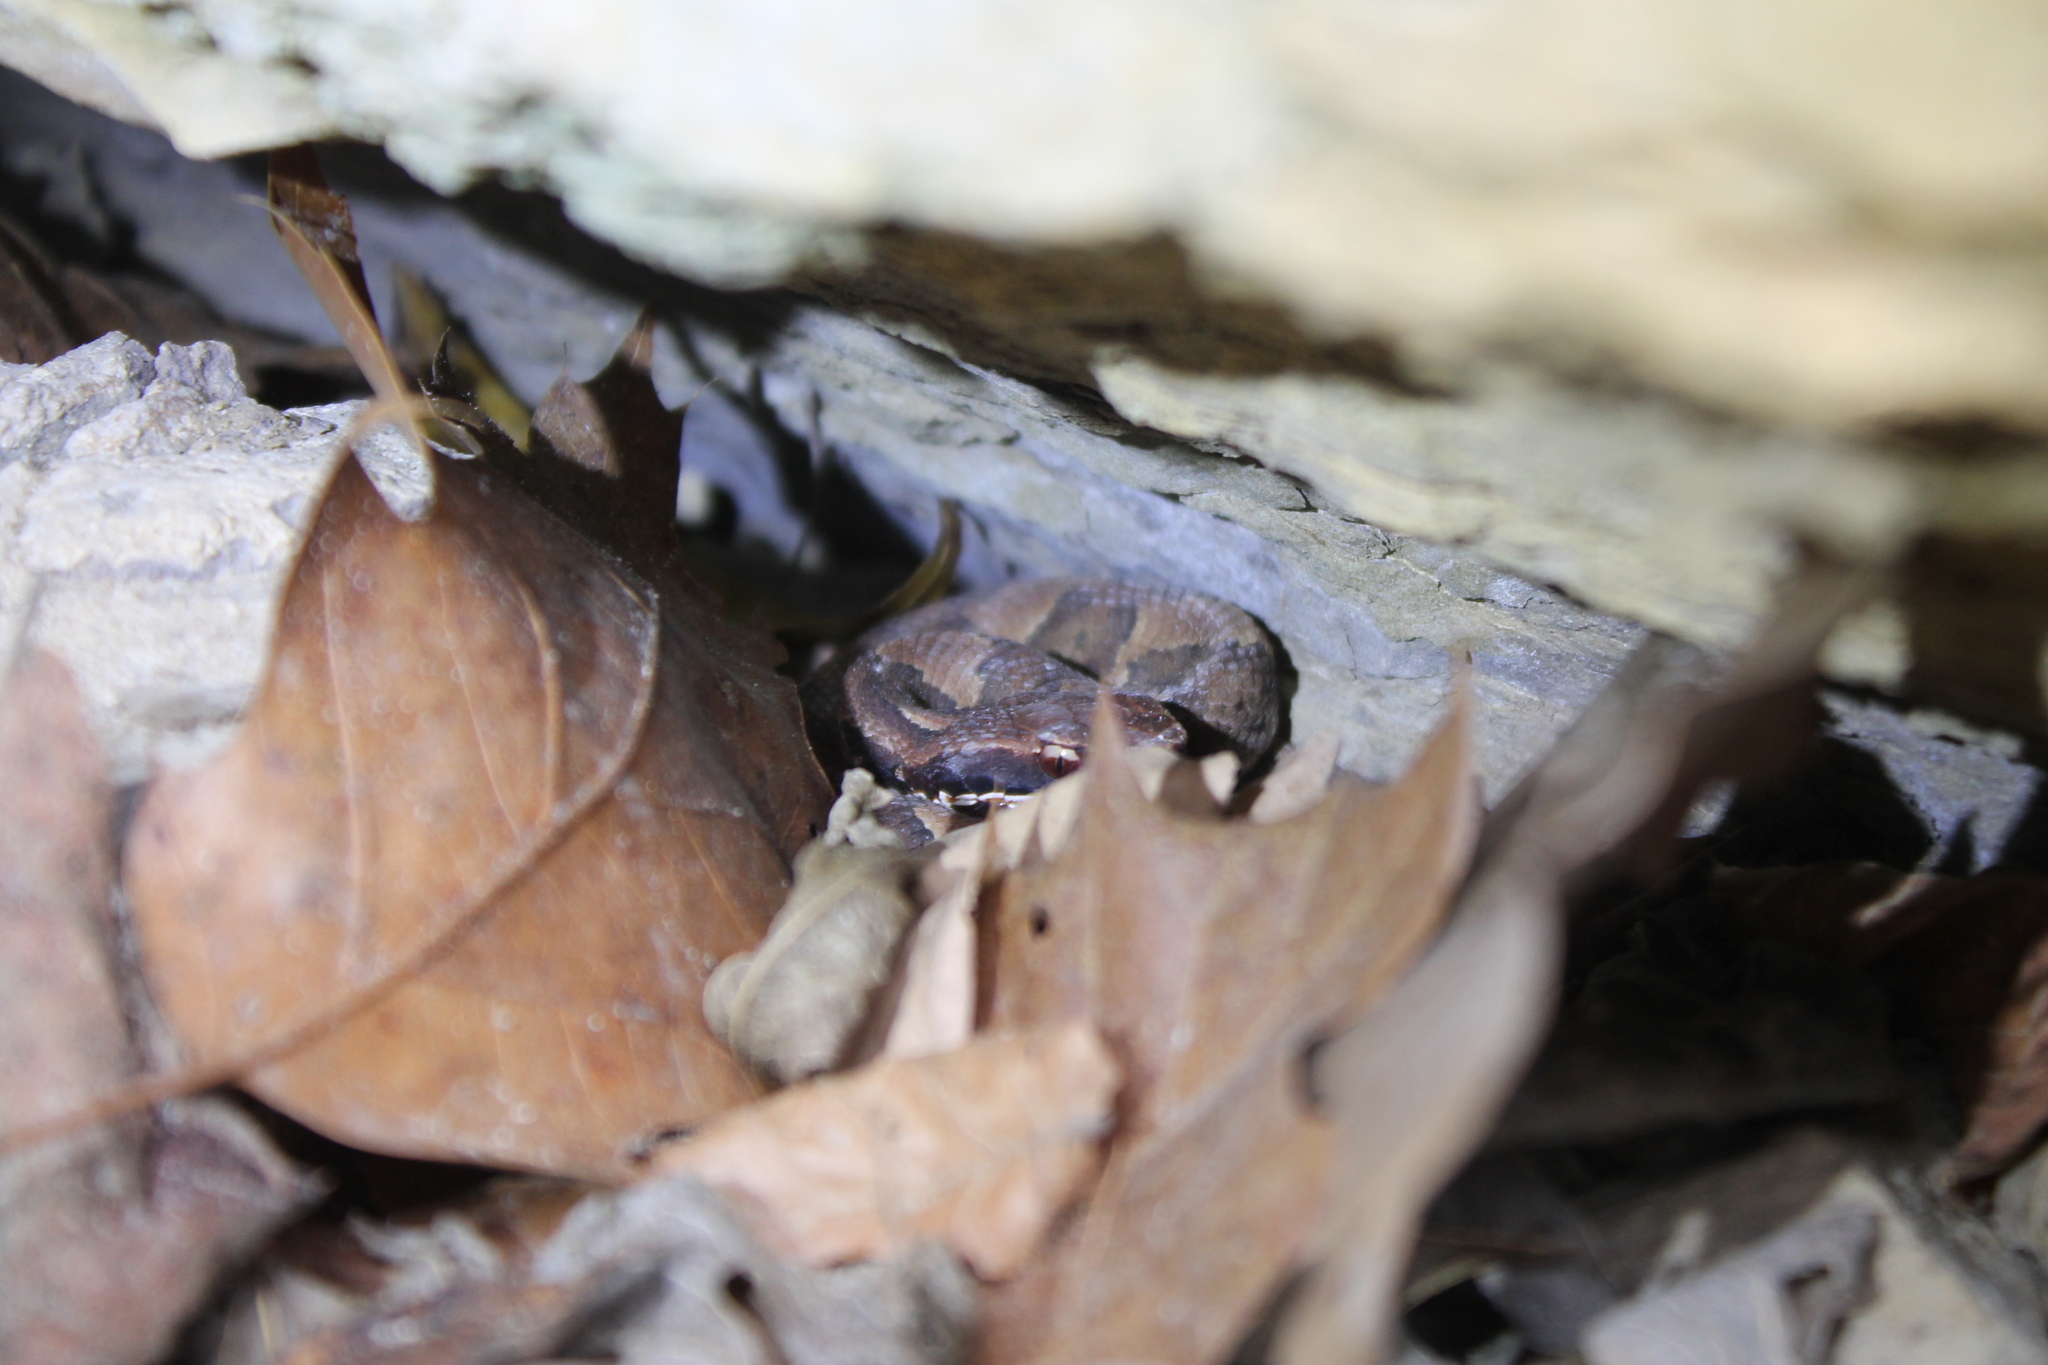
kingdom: Animalia
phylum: Chordata
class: Squamata
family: Viperidae
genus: Agkistrodon
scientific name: Agkistrodon piscivorus
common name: Cottonmouth
